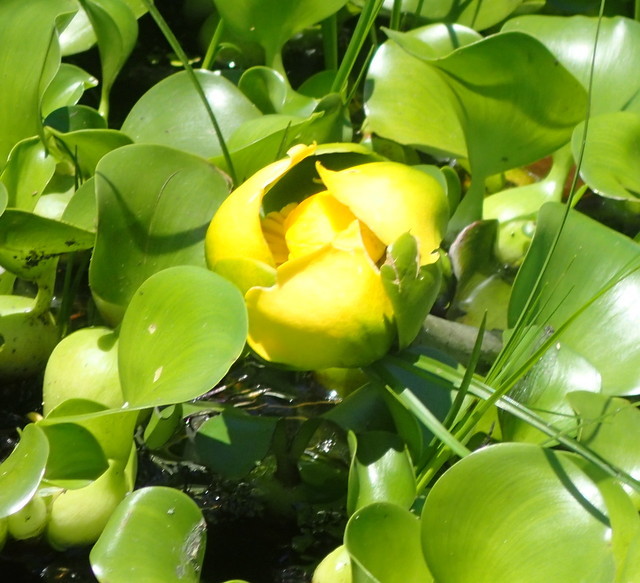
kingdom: Plantae
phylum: Tracheophyta
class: Magnoliopsida
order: Nymphaeales
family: Nymphaeaceae
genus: Nuphar
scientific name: Nuphar advena
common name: Spatter-dock
